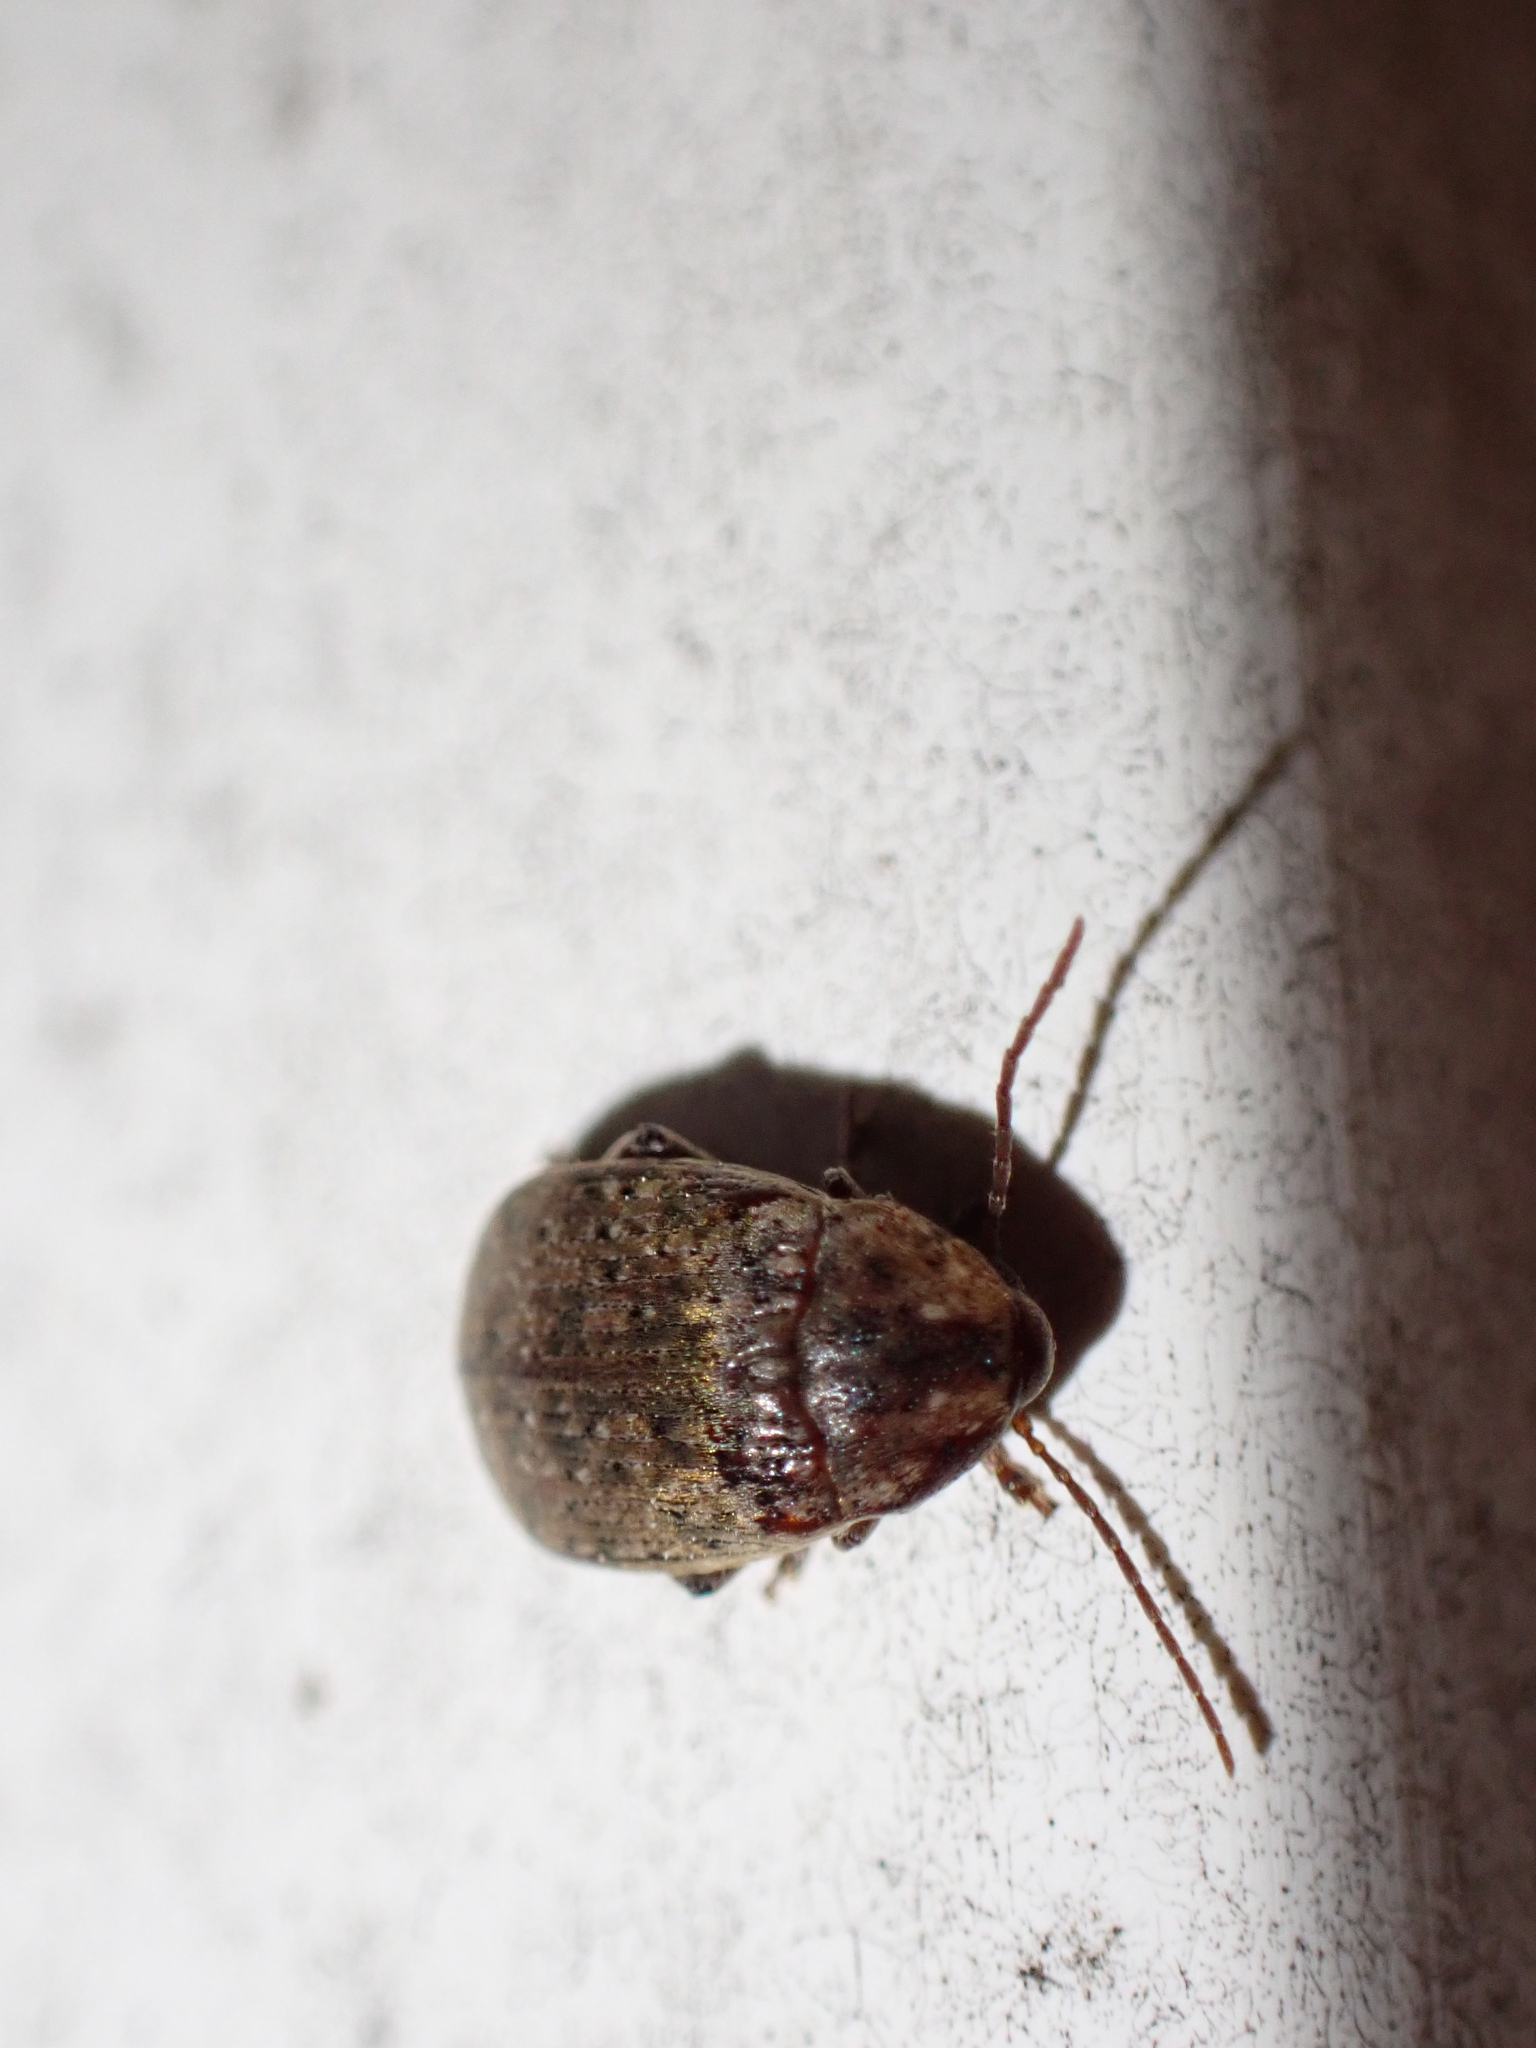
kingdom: Animalia
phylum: Arthropoda
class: Insecta
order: Coleoptera
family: Chrysomelidae
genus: Amblycerus
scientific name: Amblycerus robiniae
